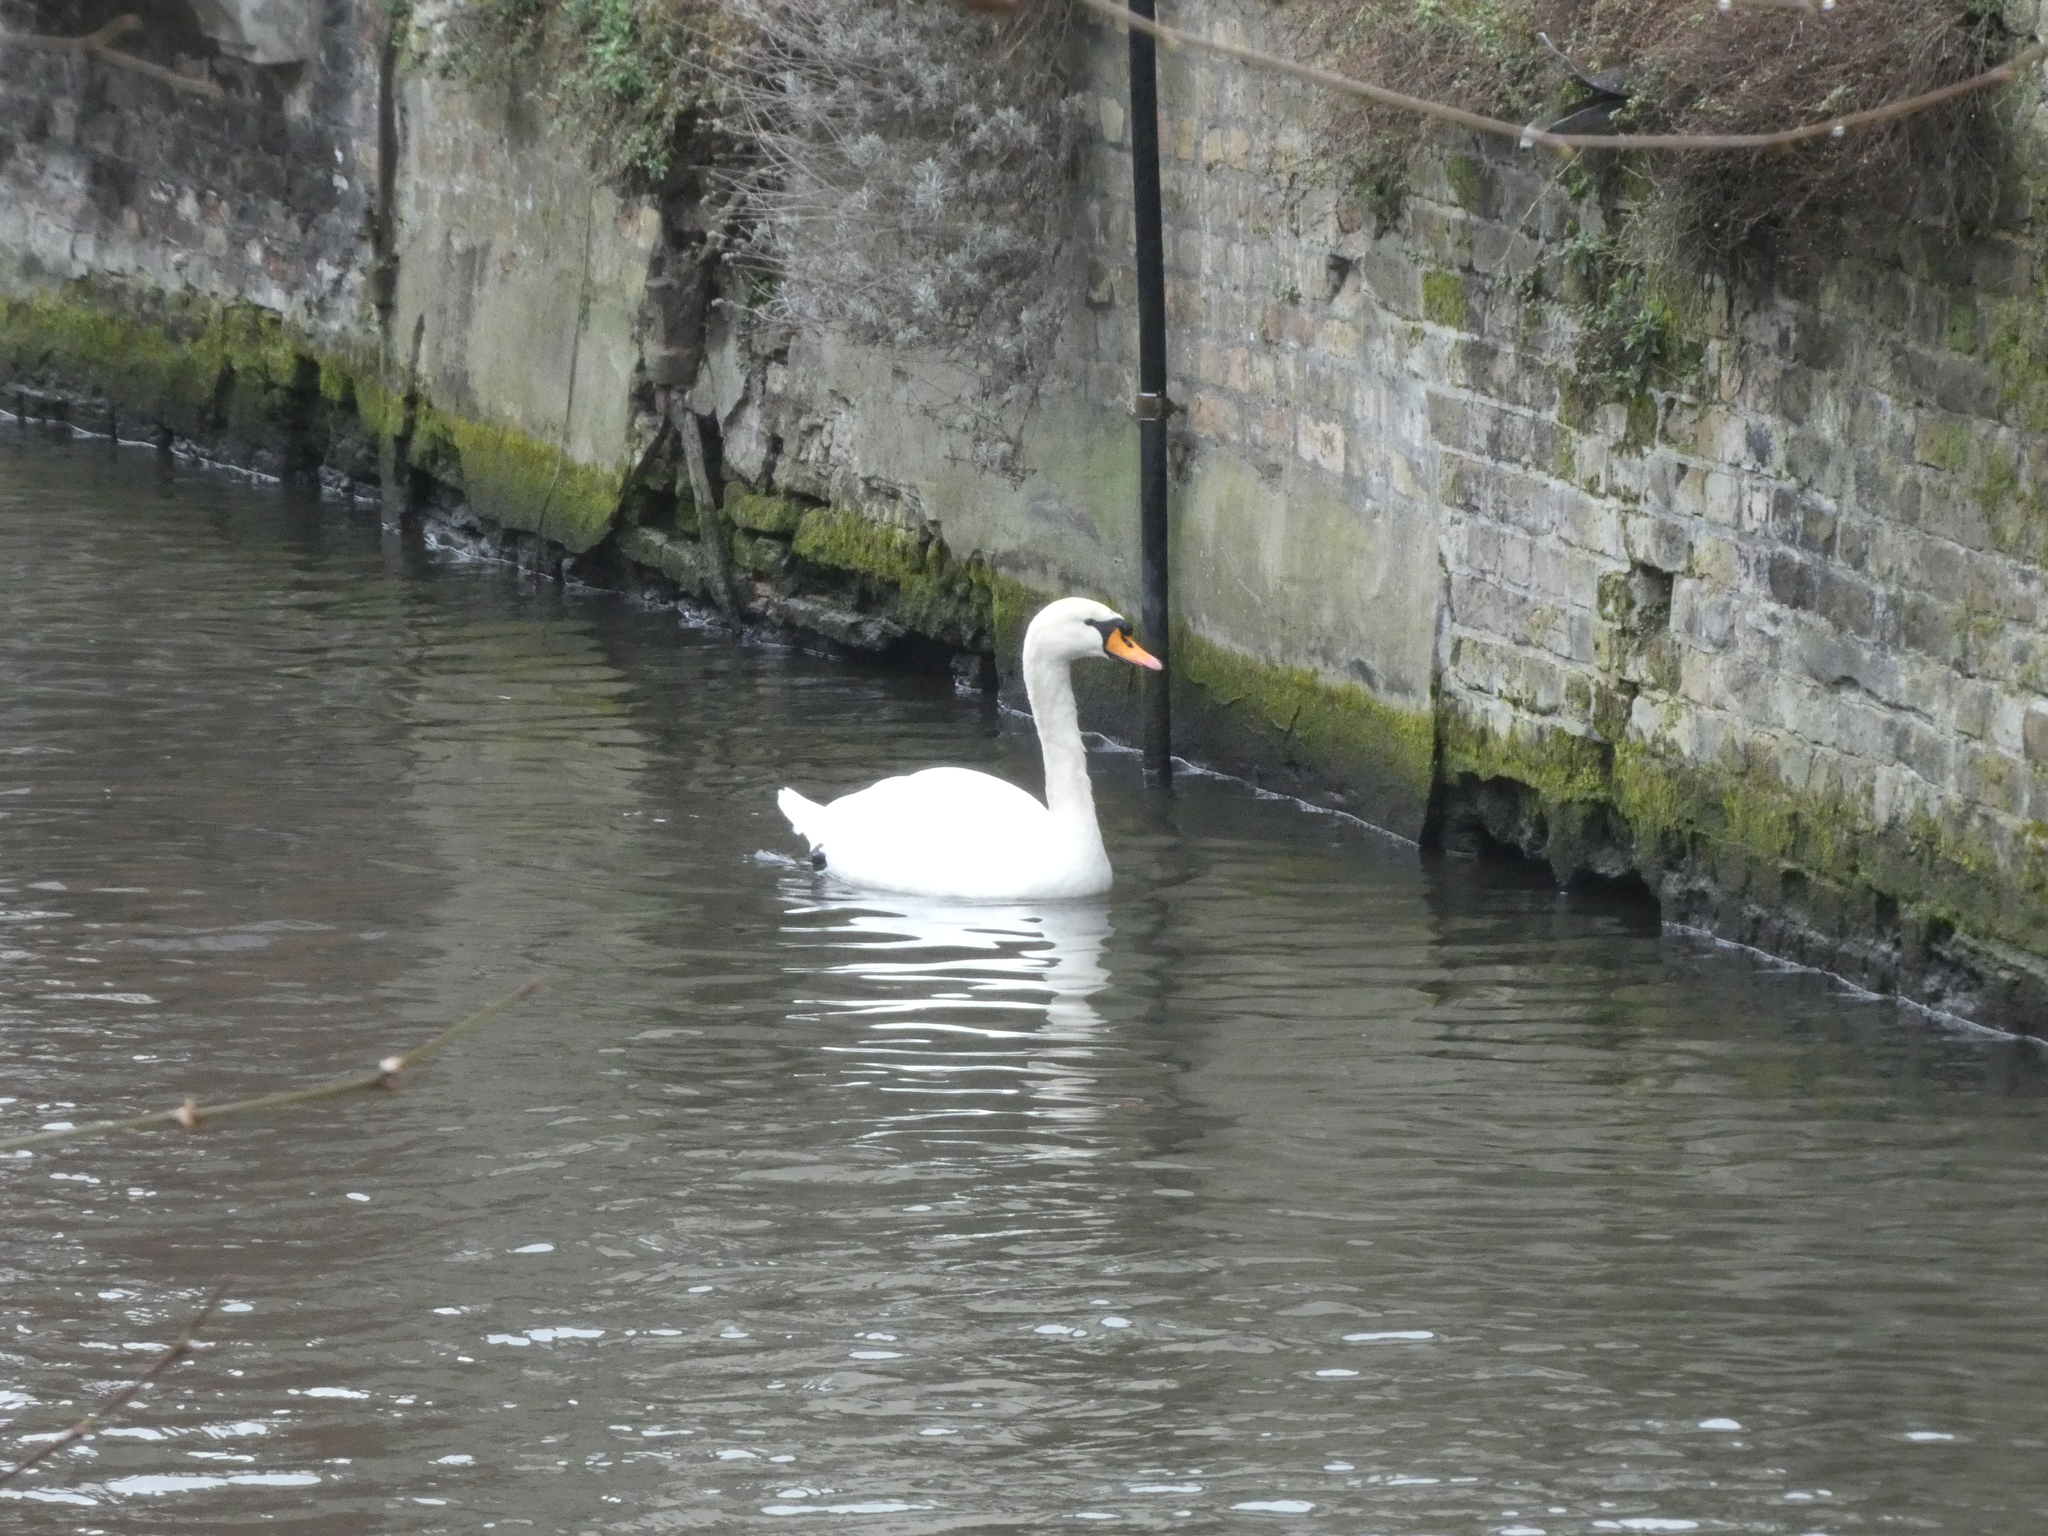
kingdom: Animalia
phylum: Chordata
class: Aves
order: Anseriformes
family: Anatidae
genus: Cygnus
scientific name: Cygnus olor
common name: Mute swan
